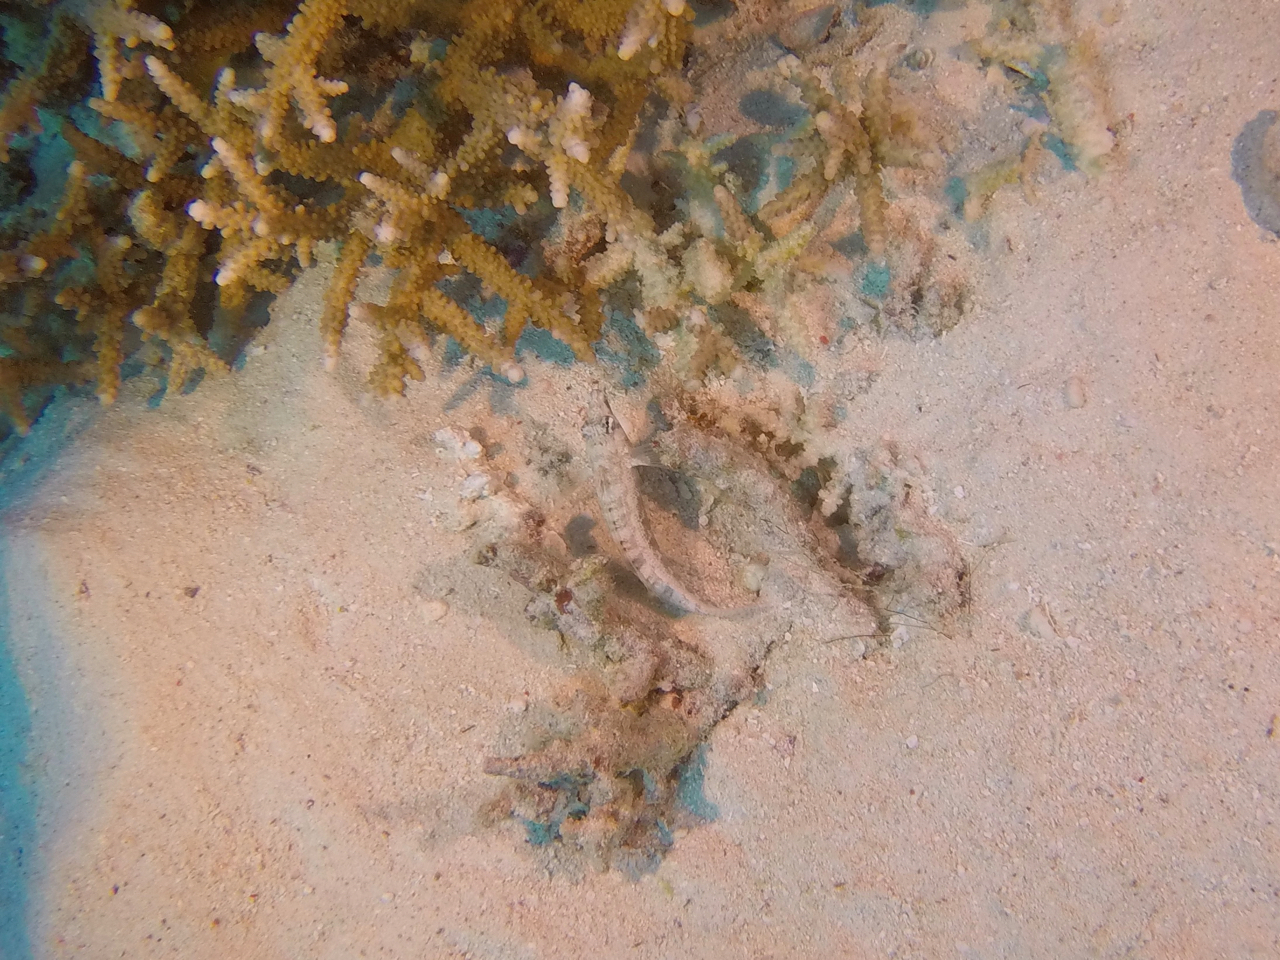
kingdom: Animalia
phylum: Chordata
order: Perciformes
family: Pinguipedidae
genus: Parapercis
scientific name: Parapercis australis
